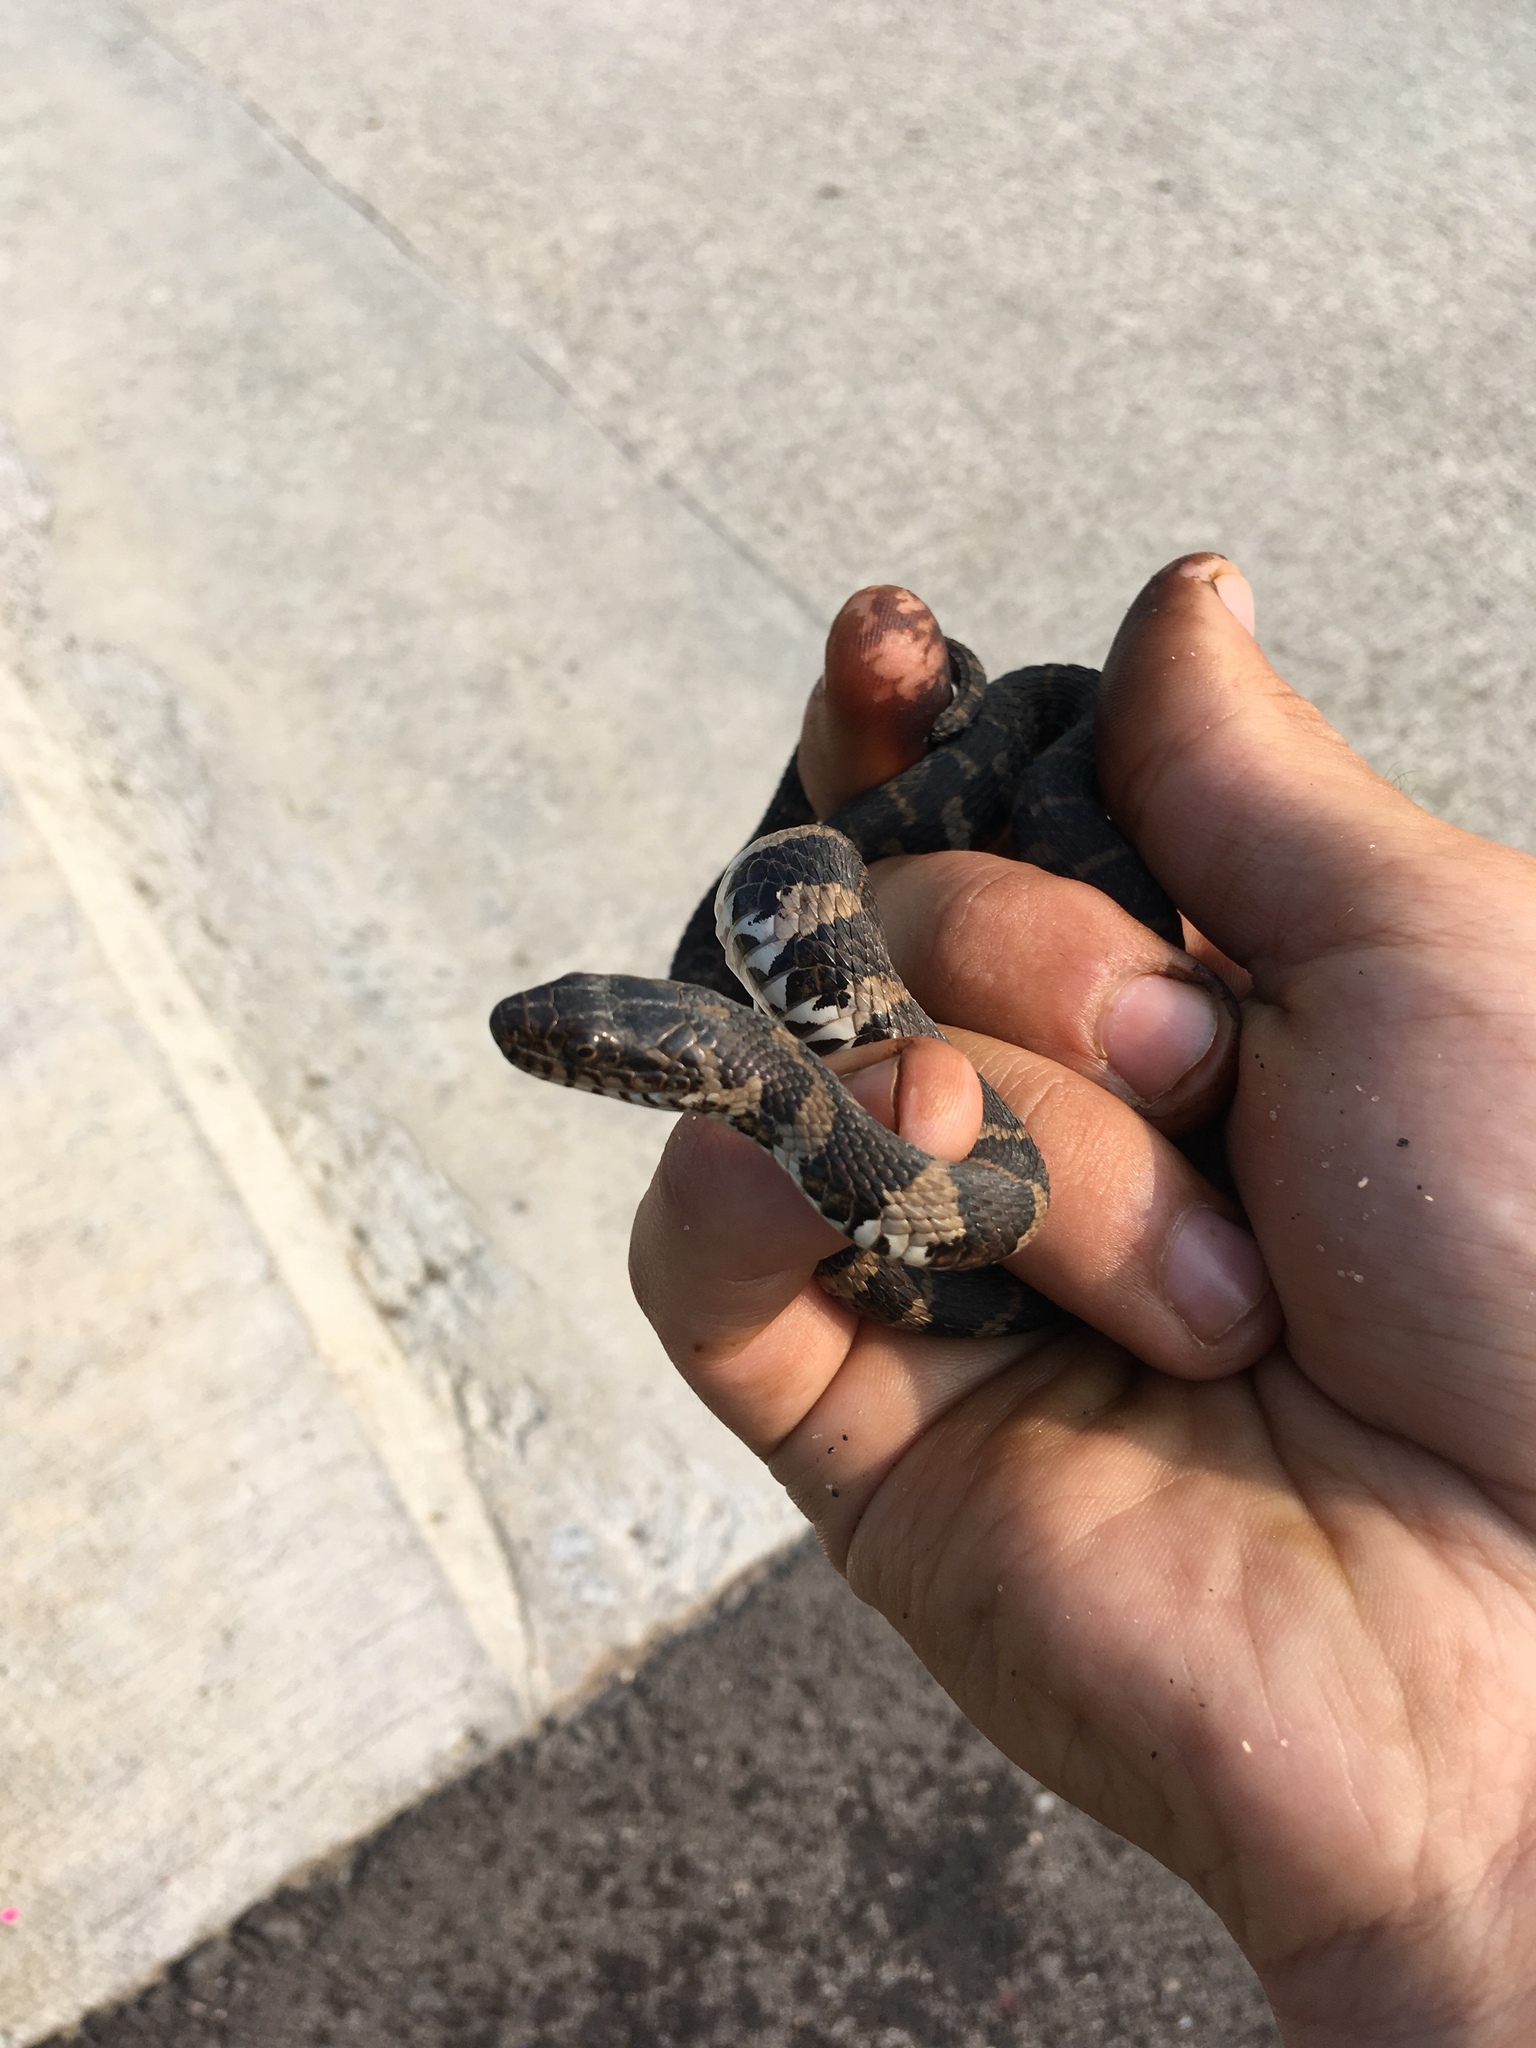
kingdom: Animalia
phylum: Chordata
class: Squamata
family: Colubridae
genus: Nerodia
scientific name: Nerodia sipedon
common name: Northern water snake
